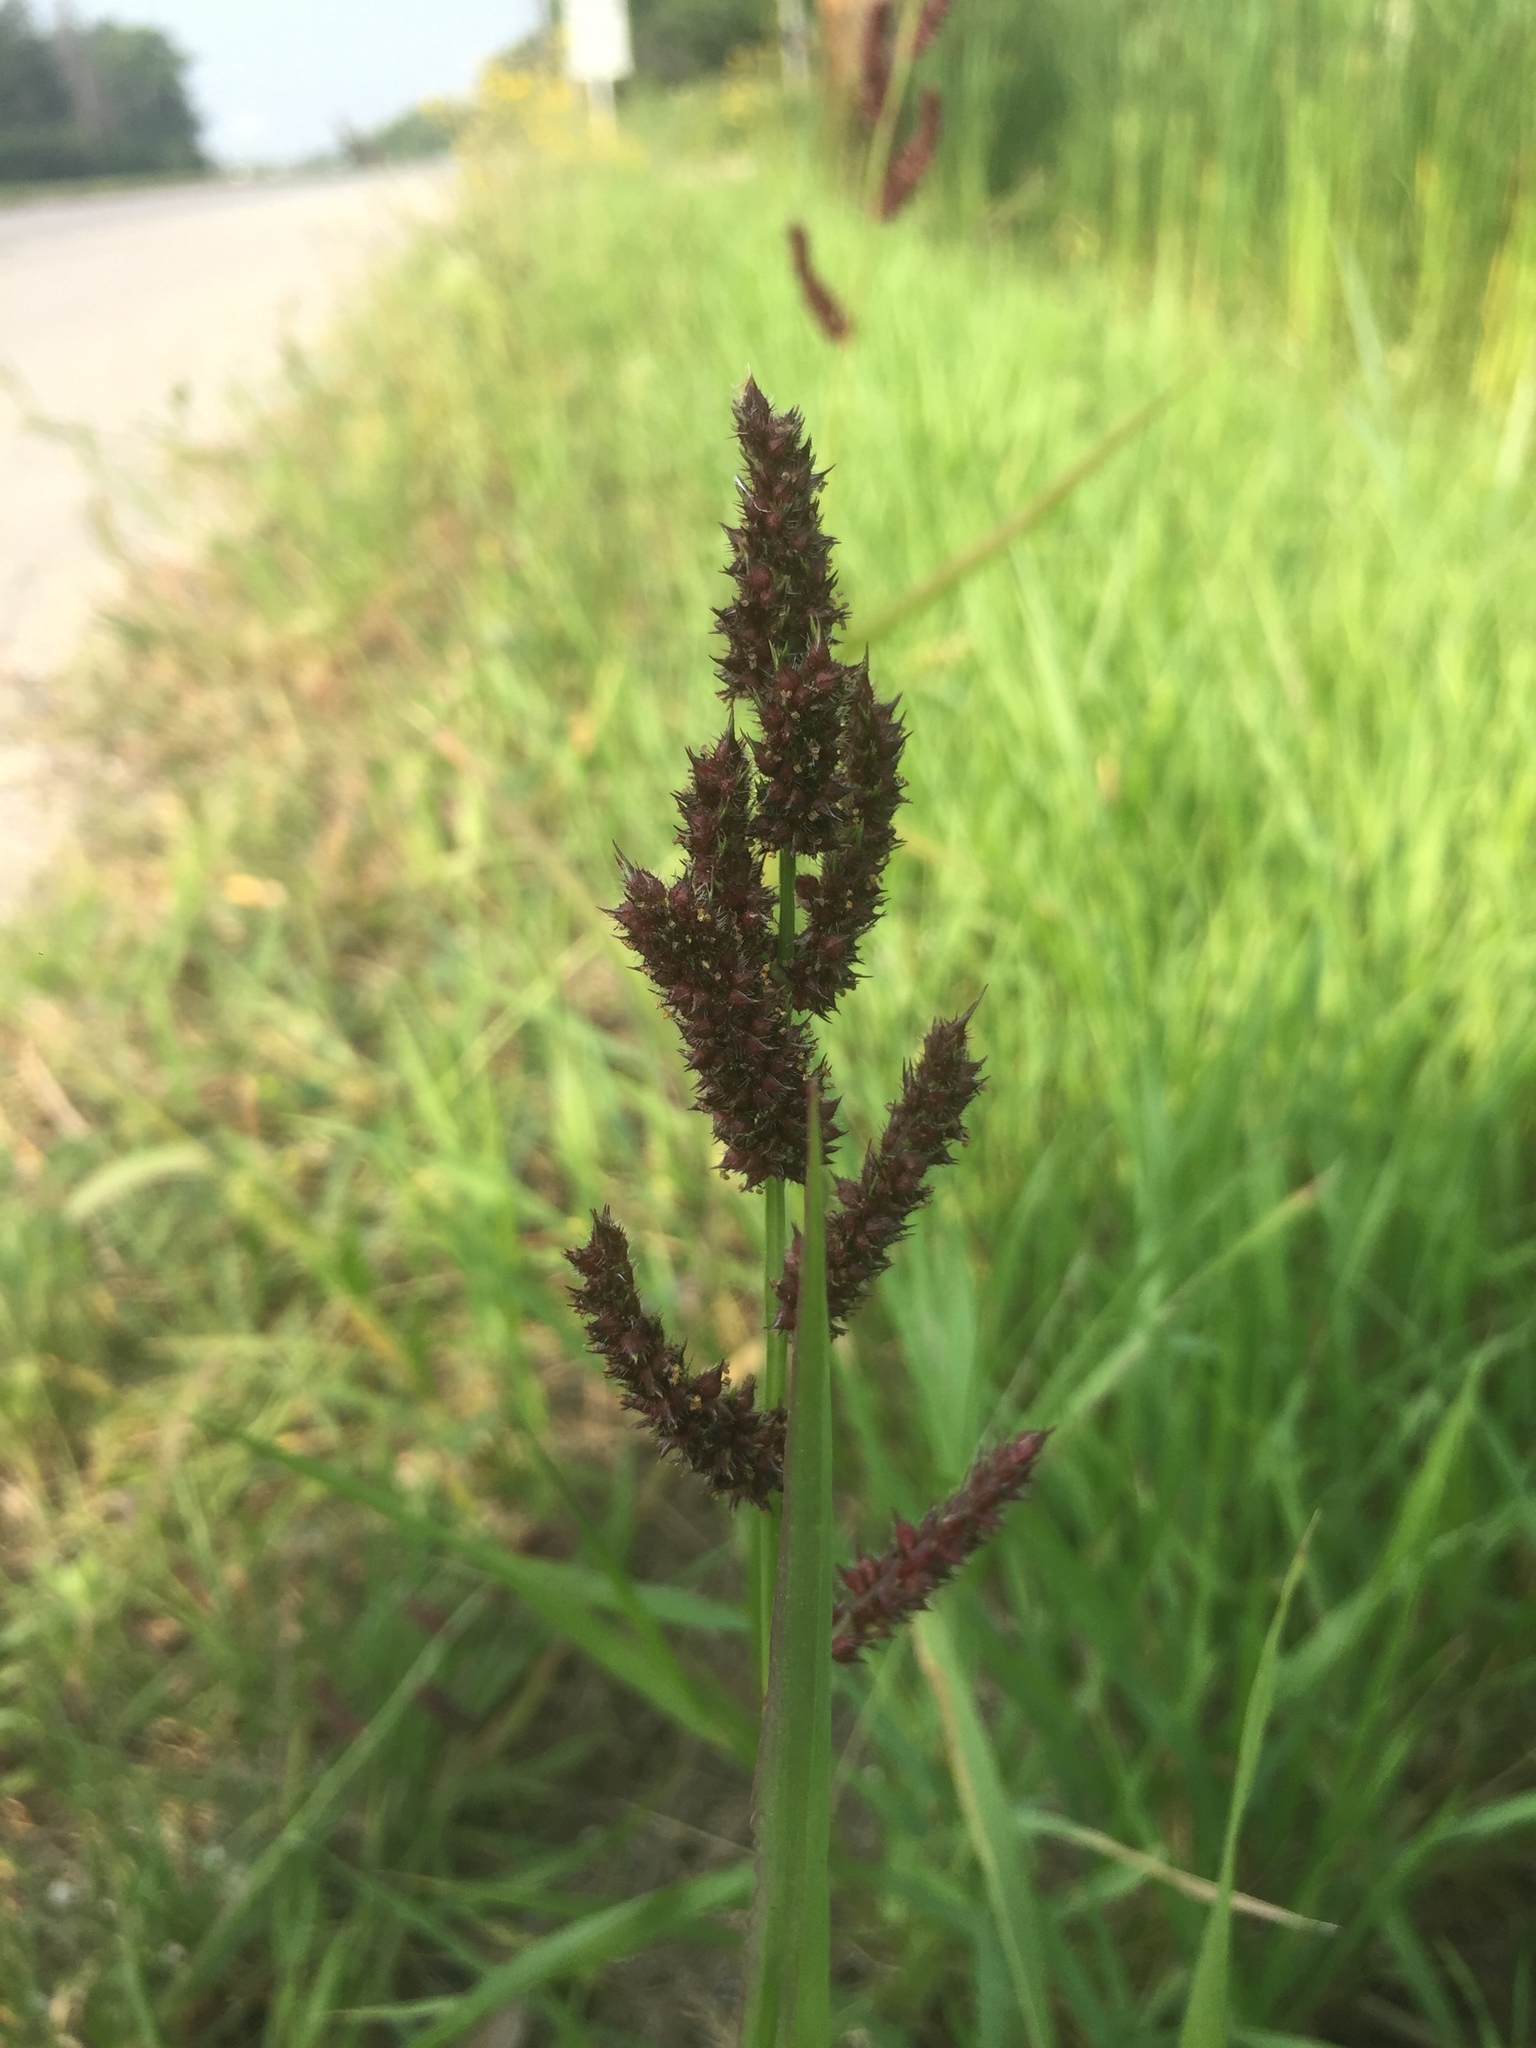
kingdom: Plantae
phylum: Tracheophyta
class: Liliopsida
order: Poales
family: Poaceae
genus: Echinochloa
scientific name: Echinochloa crus-galli
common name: Cockspur
